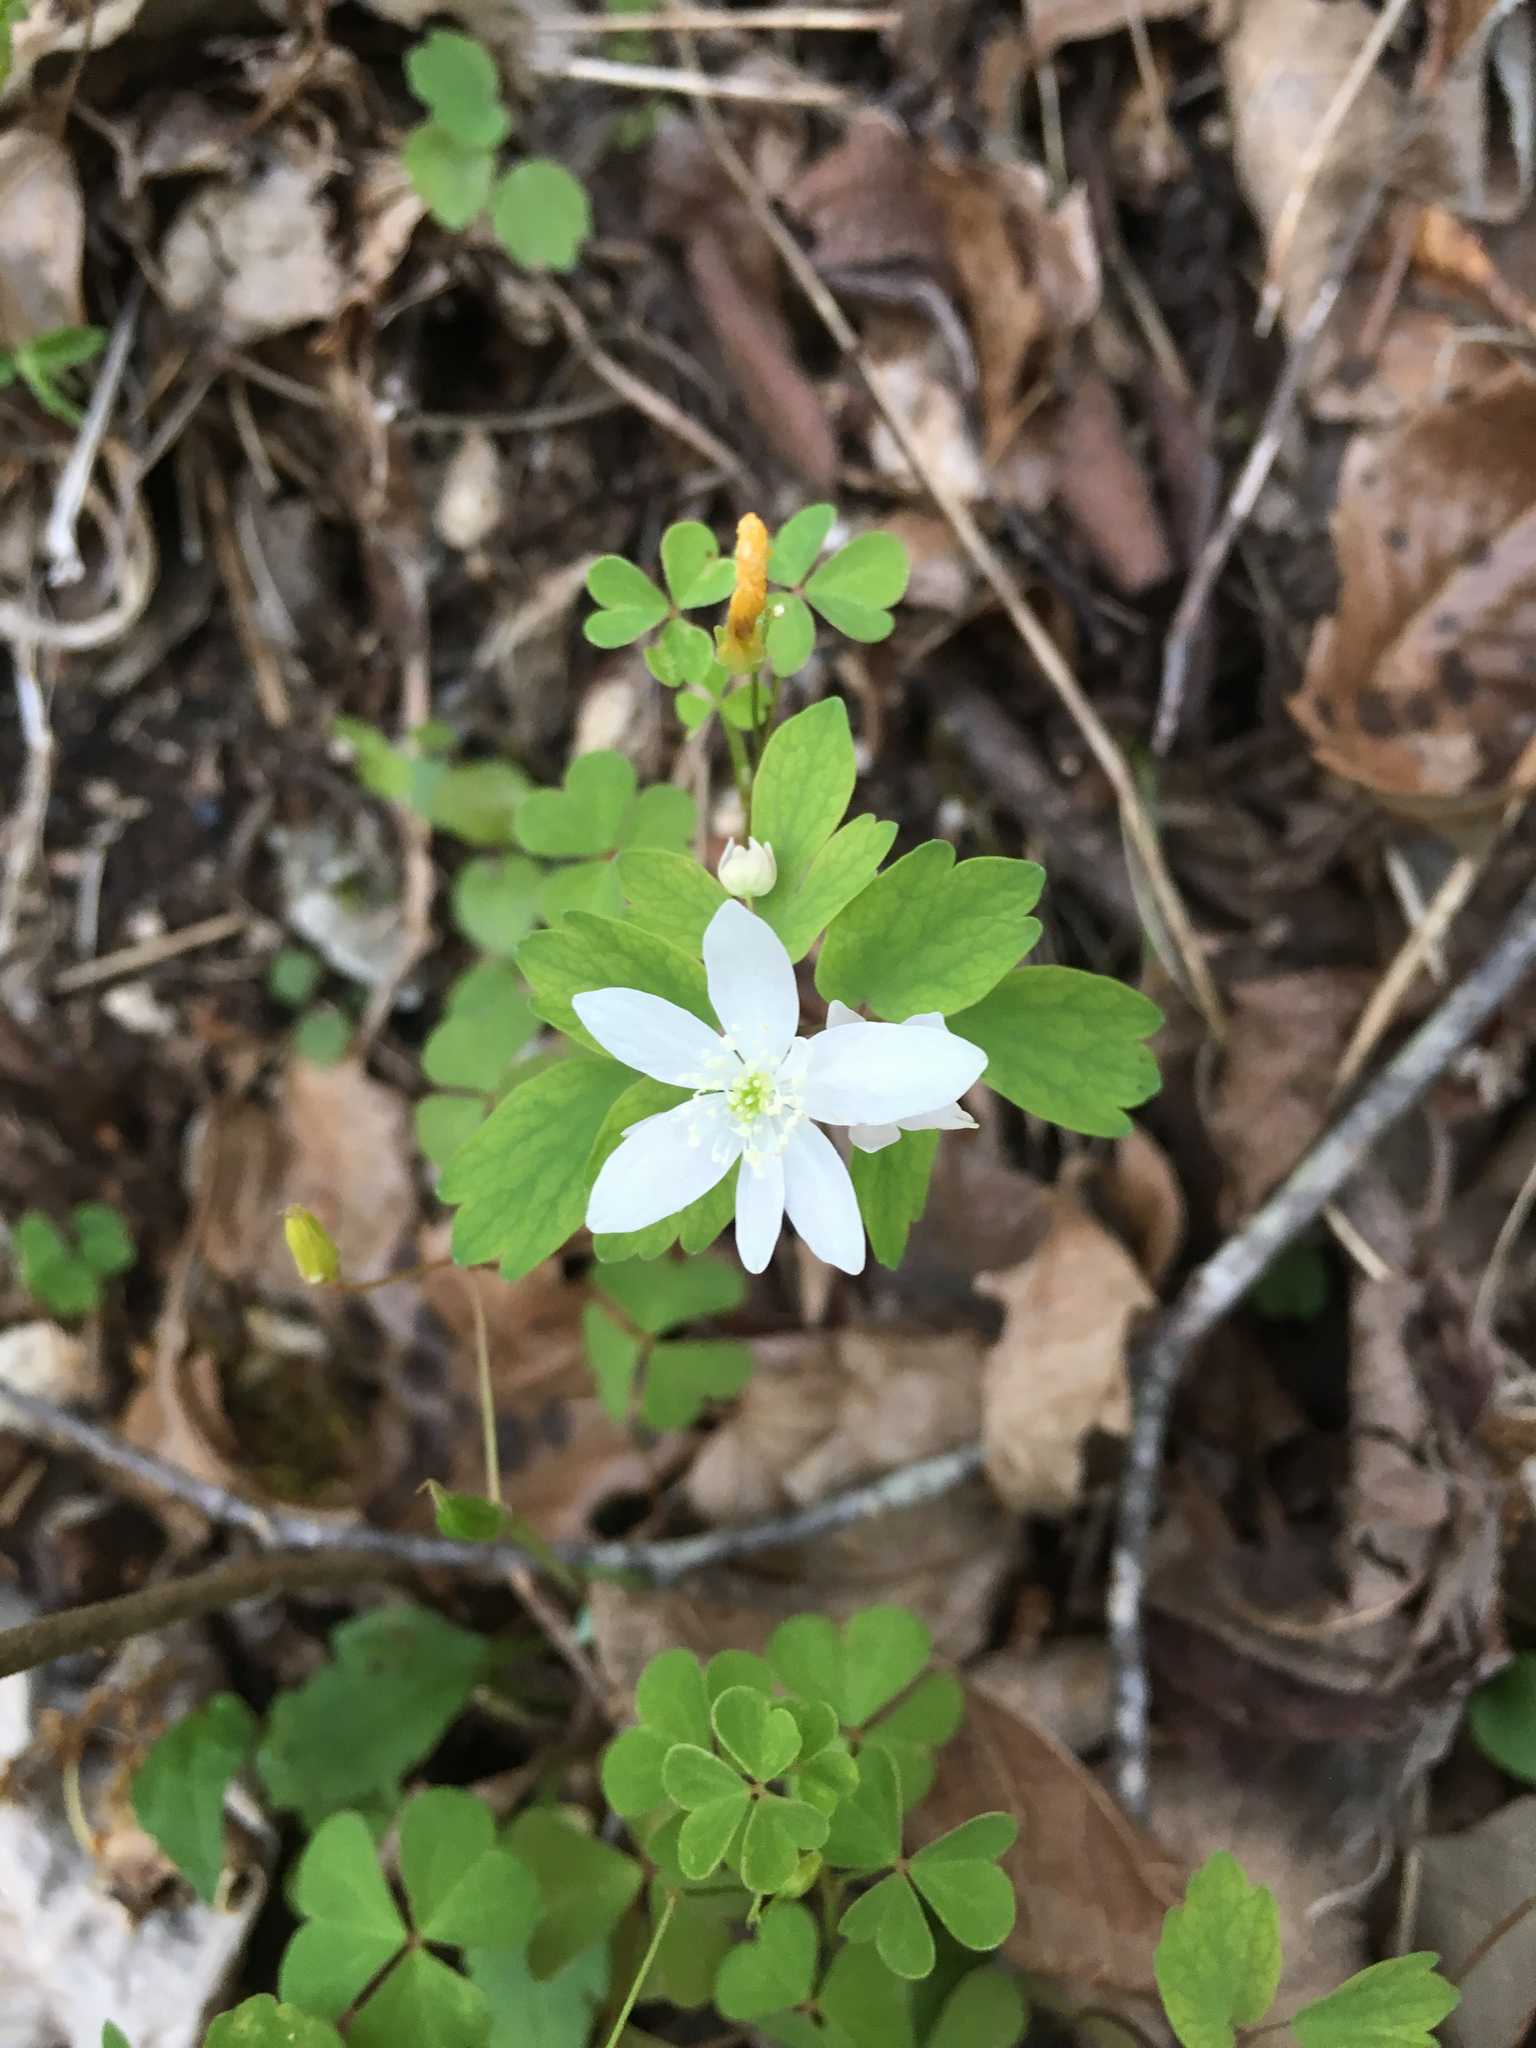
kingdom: Plantae
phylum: Tracheophyta
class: Magnoliopsida
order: Ranunculales
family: Ranunculaceae
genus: Thalictrum
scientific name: Thalictrum thalictroides
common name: Rue-anemone
